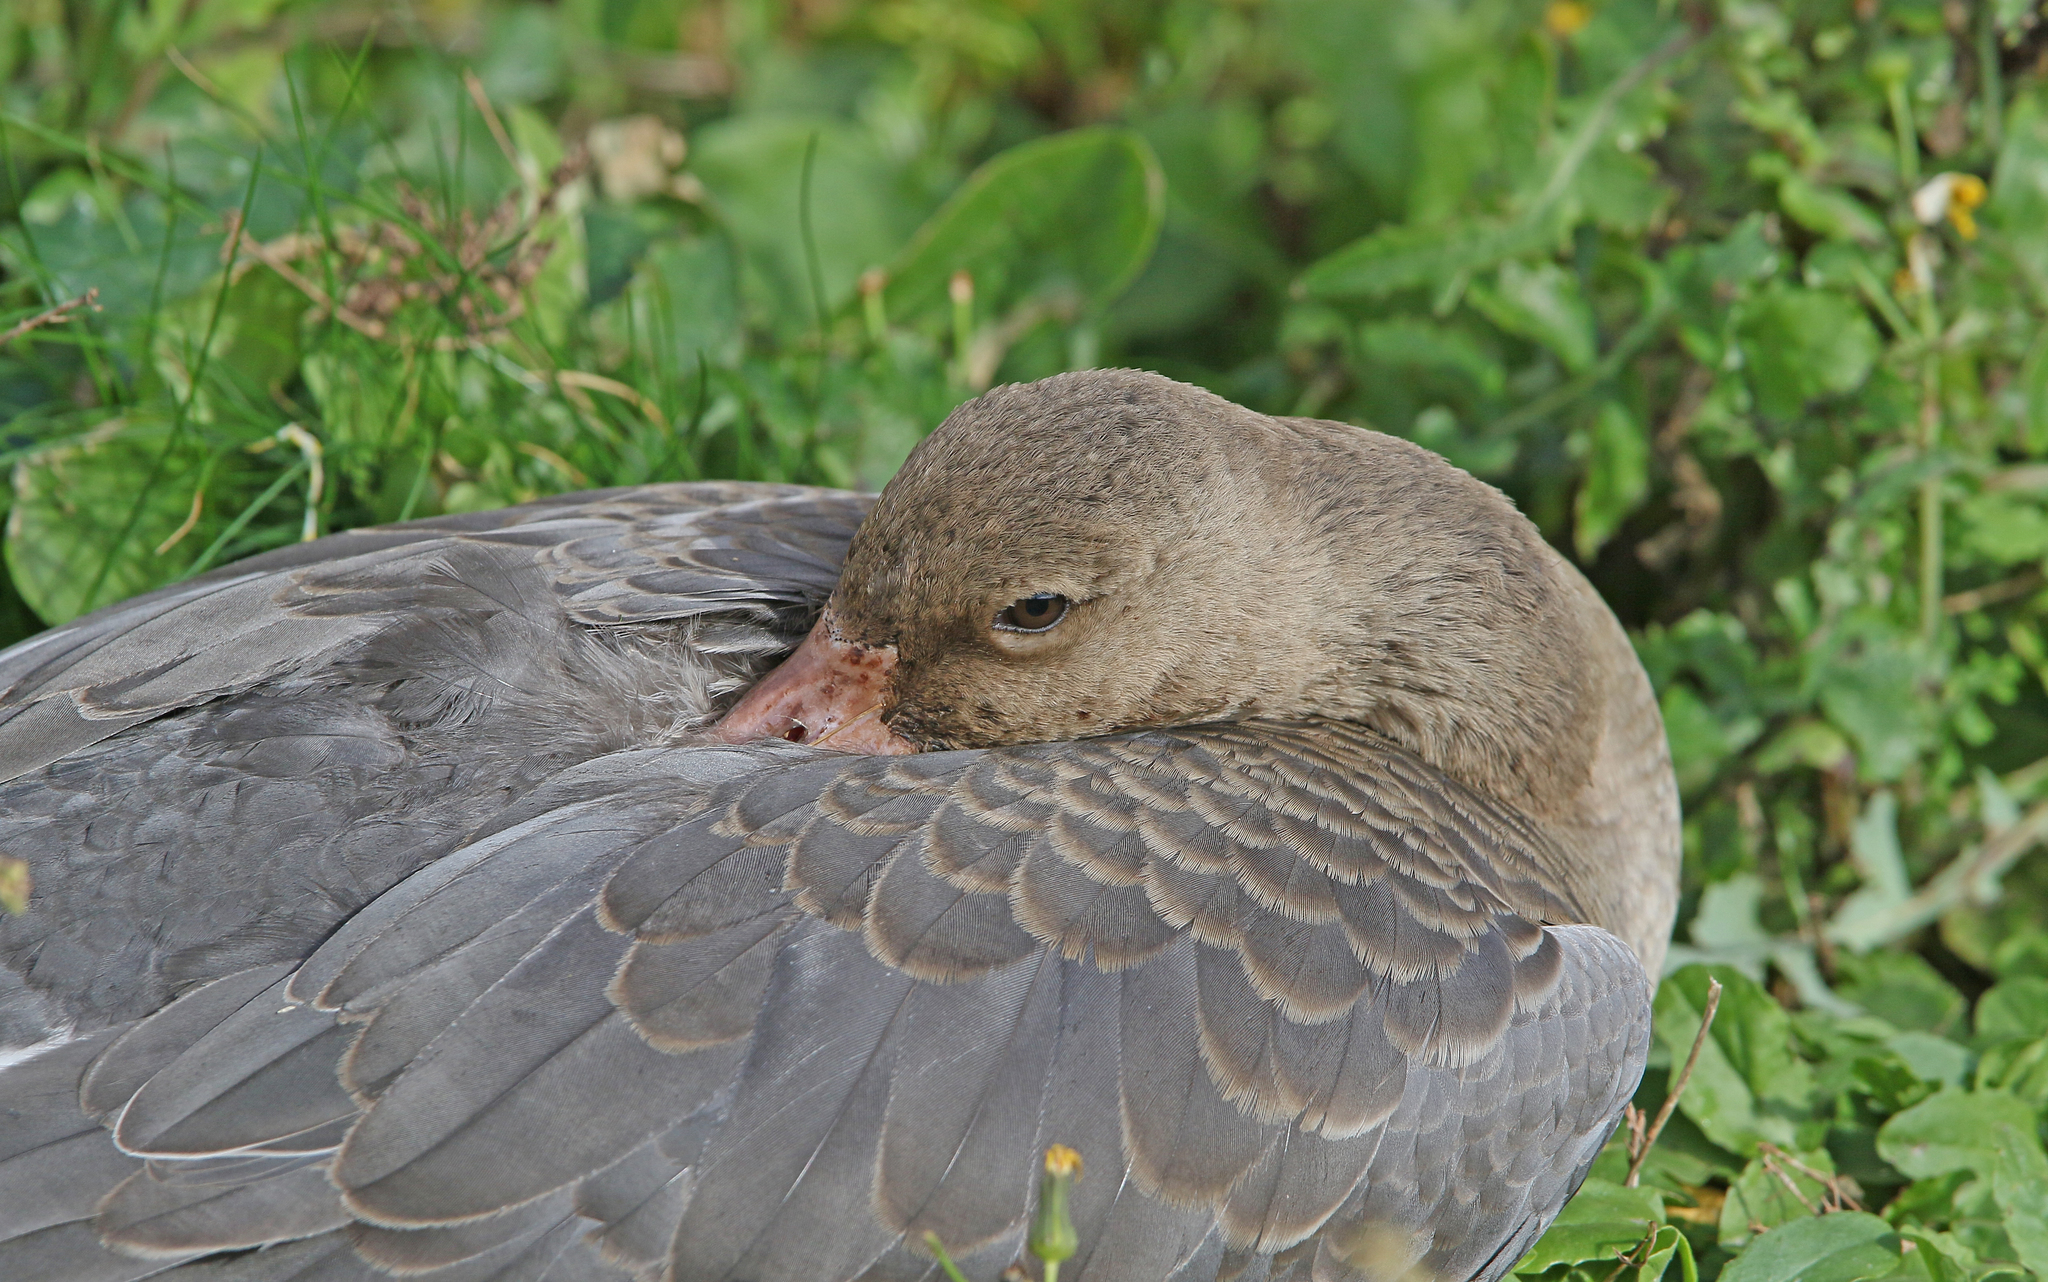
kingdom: Animalia
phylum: Chordata
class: Aves
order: Anseriformes
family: Anatidae
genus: Anser
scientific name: Anser albifrons
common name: Greater white-fronted goose
